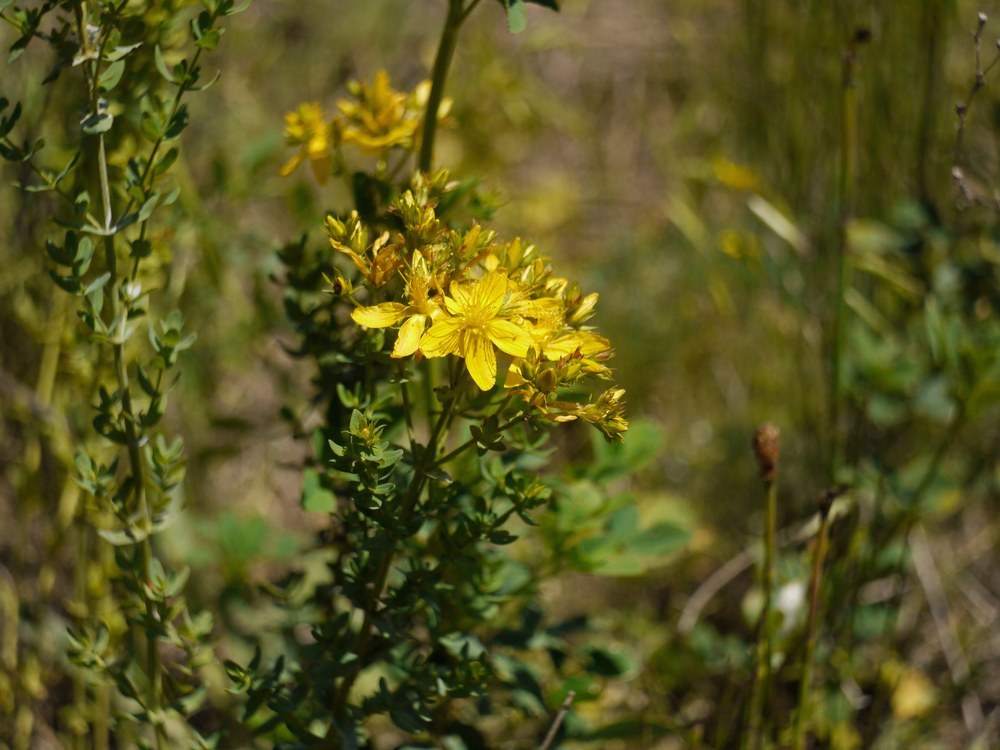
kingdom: Plantae
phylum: Tracheophyta
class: Magnoliopsida
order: Malpighiales
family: Hypericaceae
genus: Hypericum
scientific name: Hypericum perforatum
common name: Common st. johnswort
